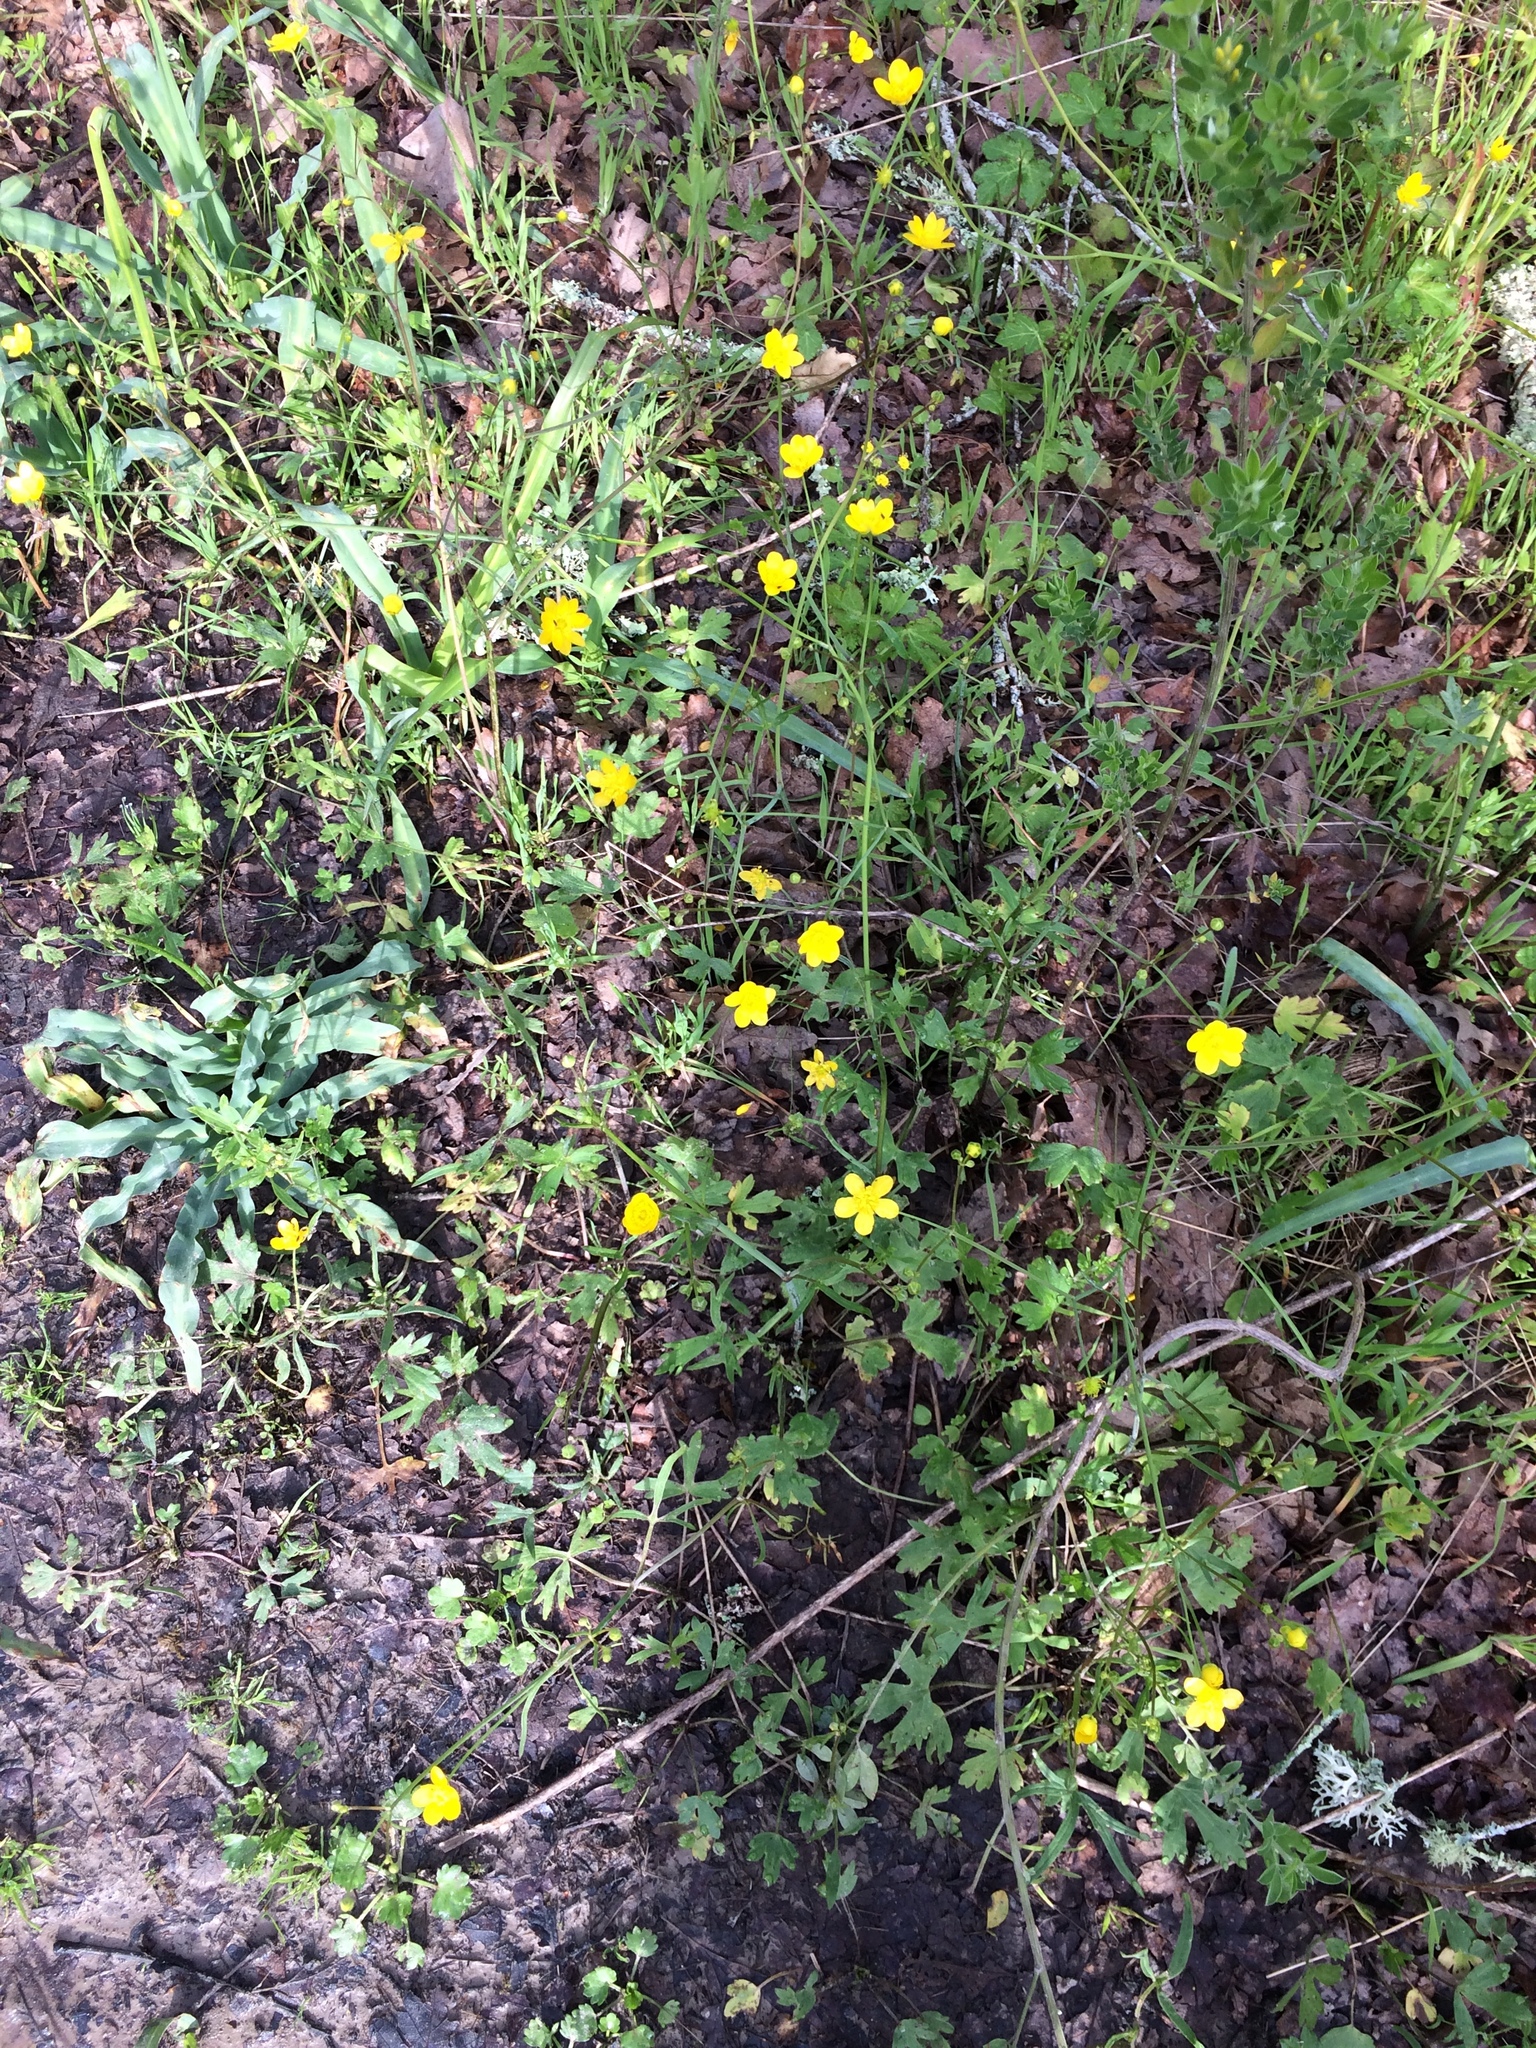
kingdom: Plantae
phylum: Tracheophyta
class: Magnoliopsida
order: Ranunculales
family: Ranunculaceae
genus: Ranunculus
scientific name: Ranunculus californicus
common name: California buttercup
